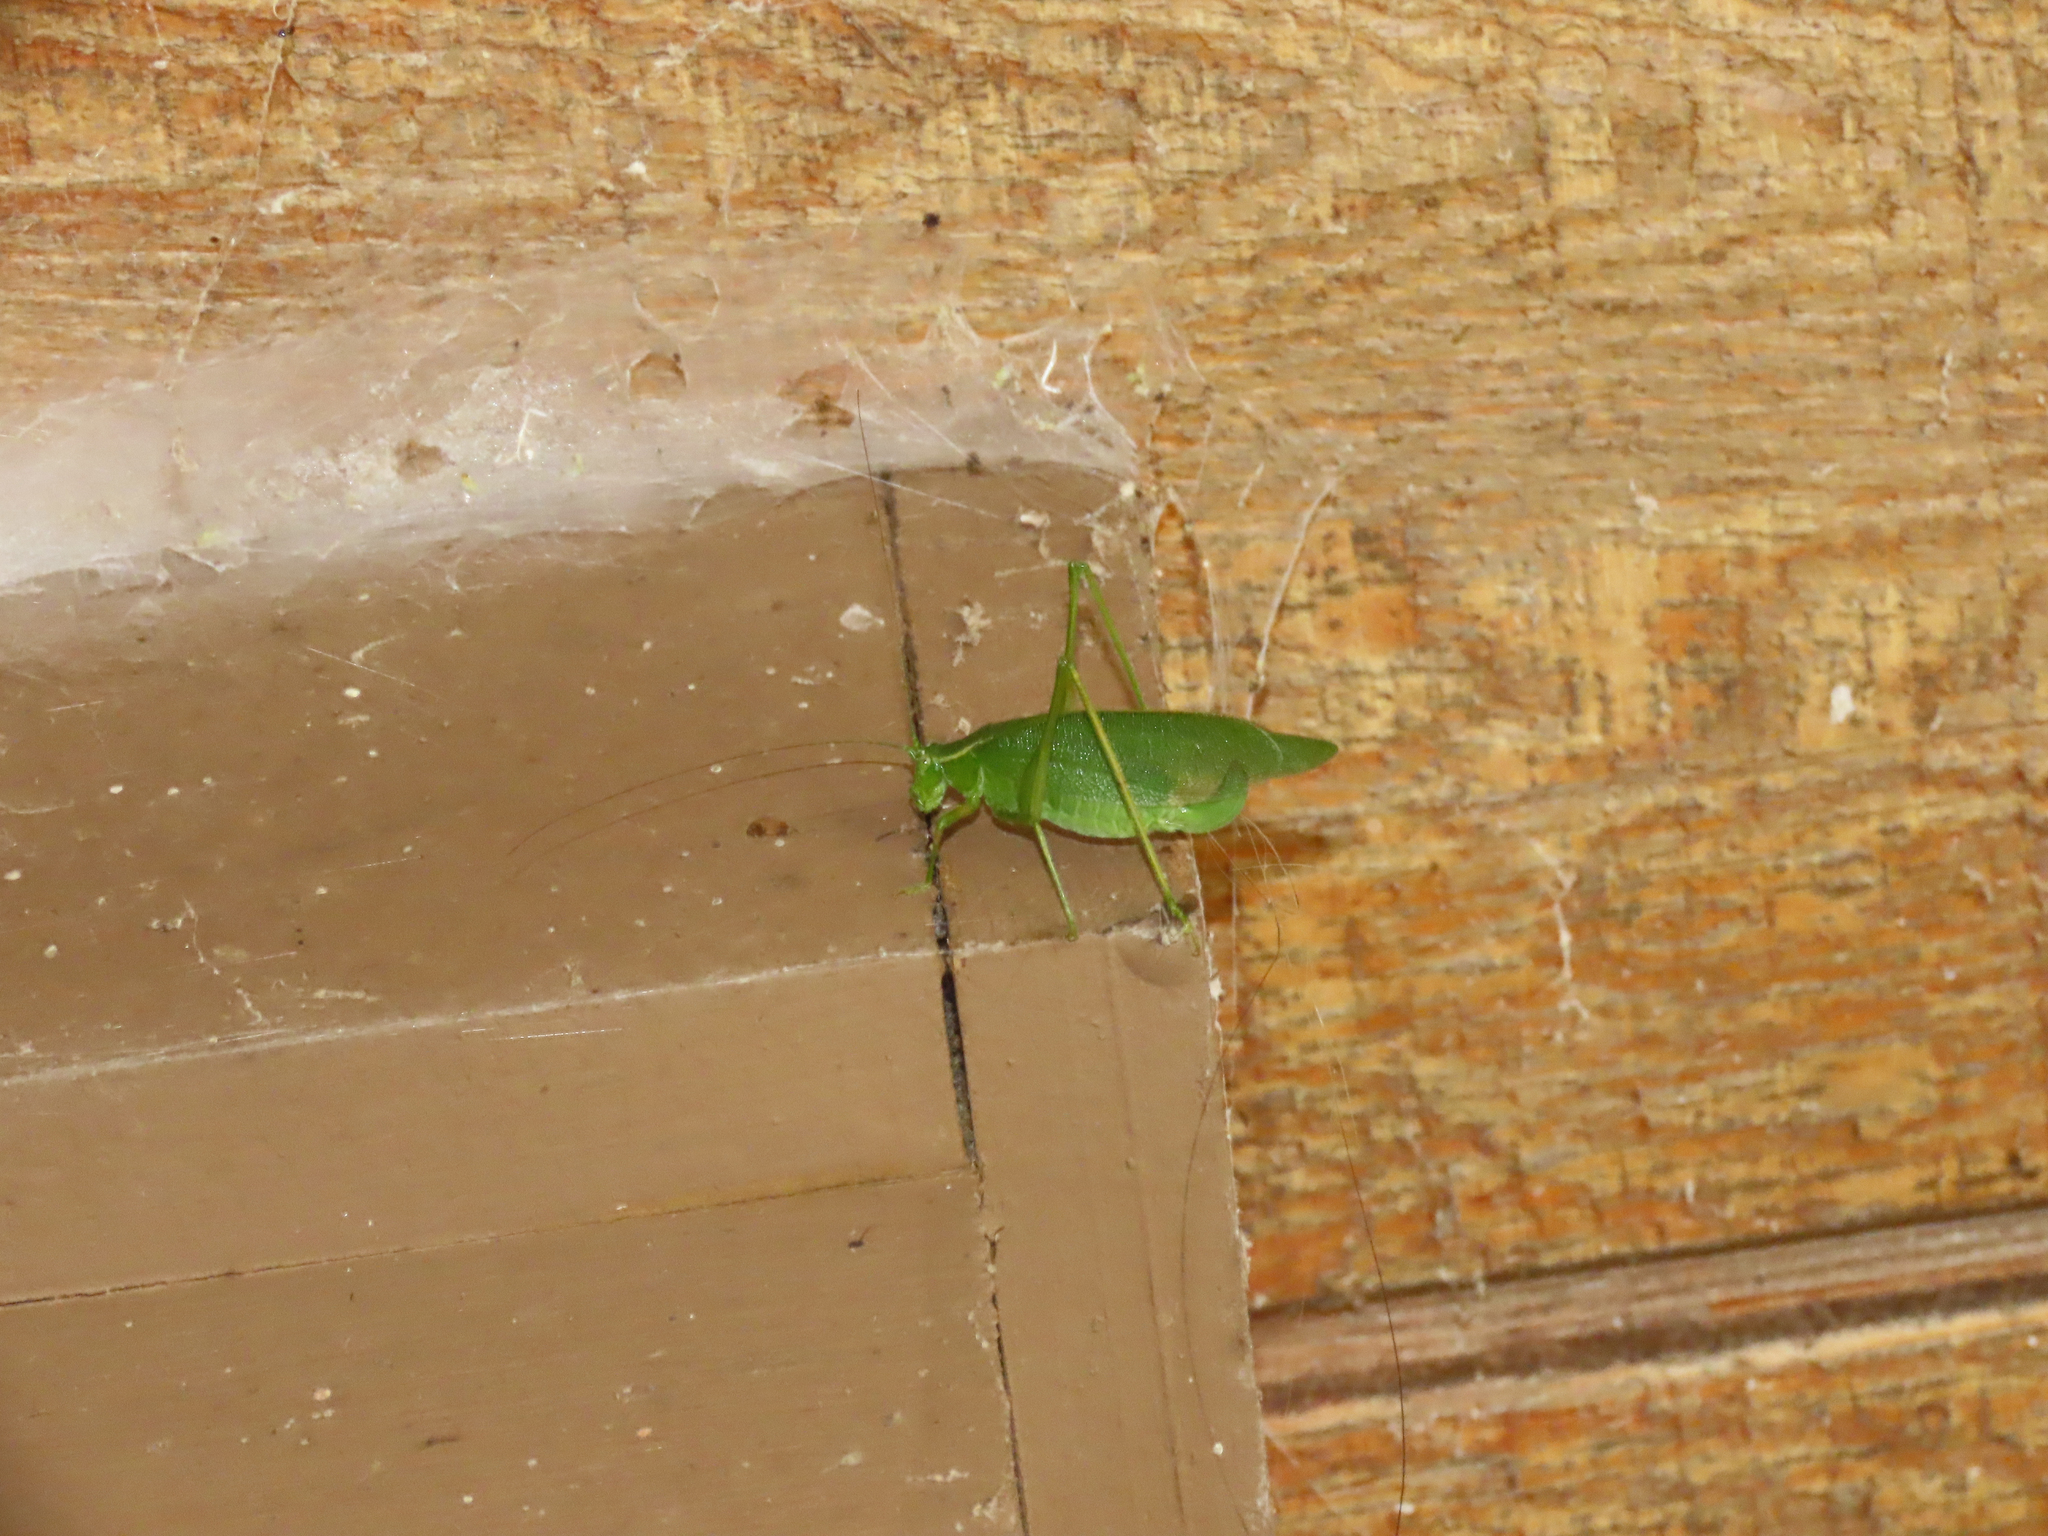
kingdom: Animalia
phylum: Arthropoda
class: Insecta
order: Orthoptera
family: Tettigoniidae
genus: Scudderia
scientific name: Scudderia septentrionalis
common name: Northern bush-katydid
